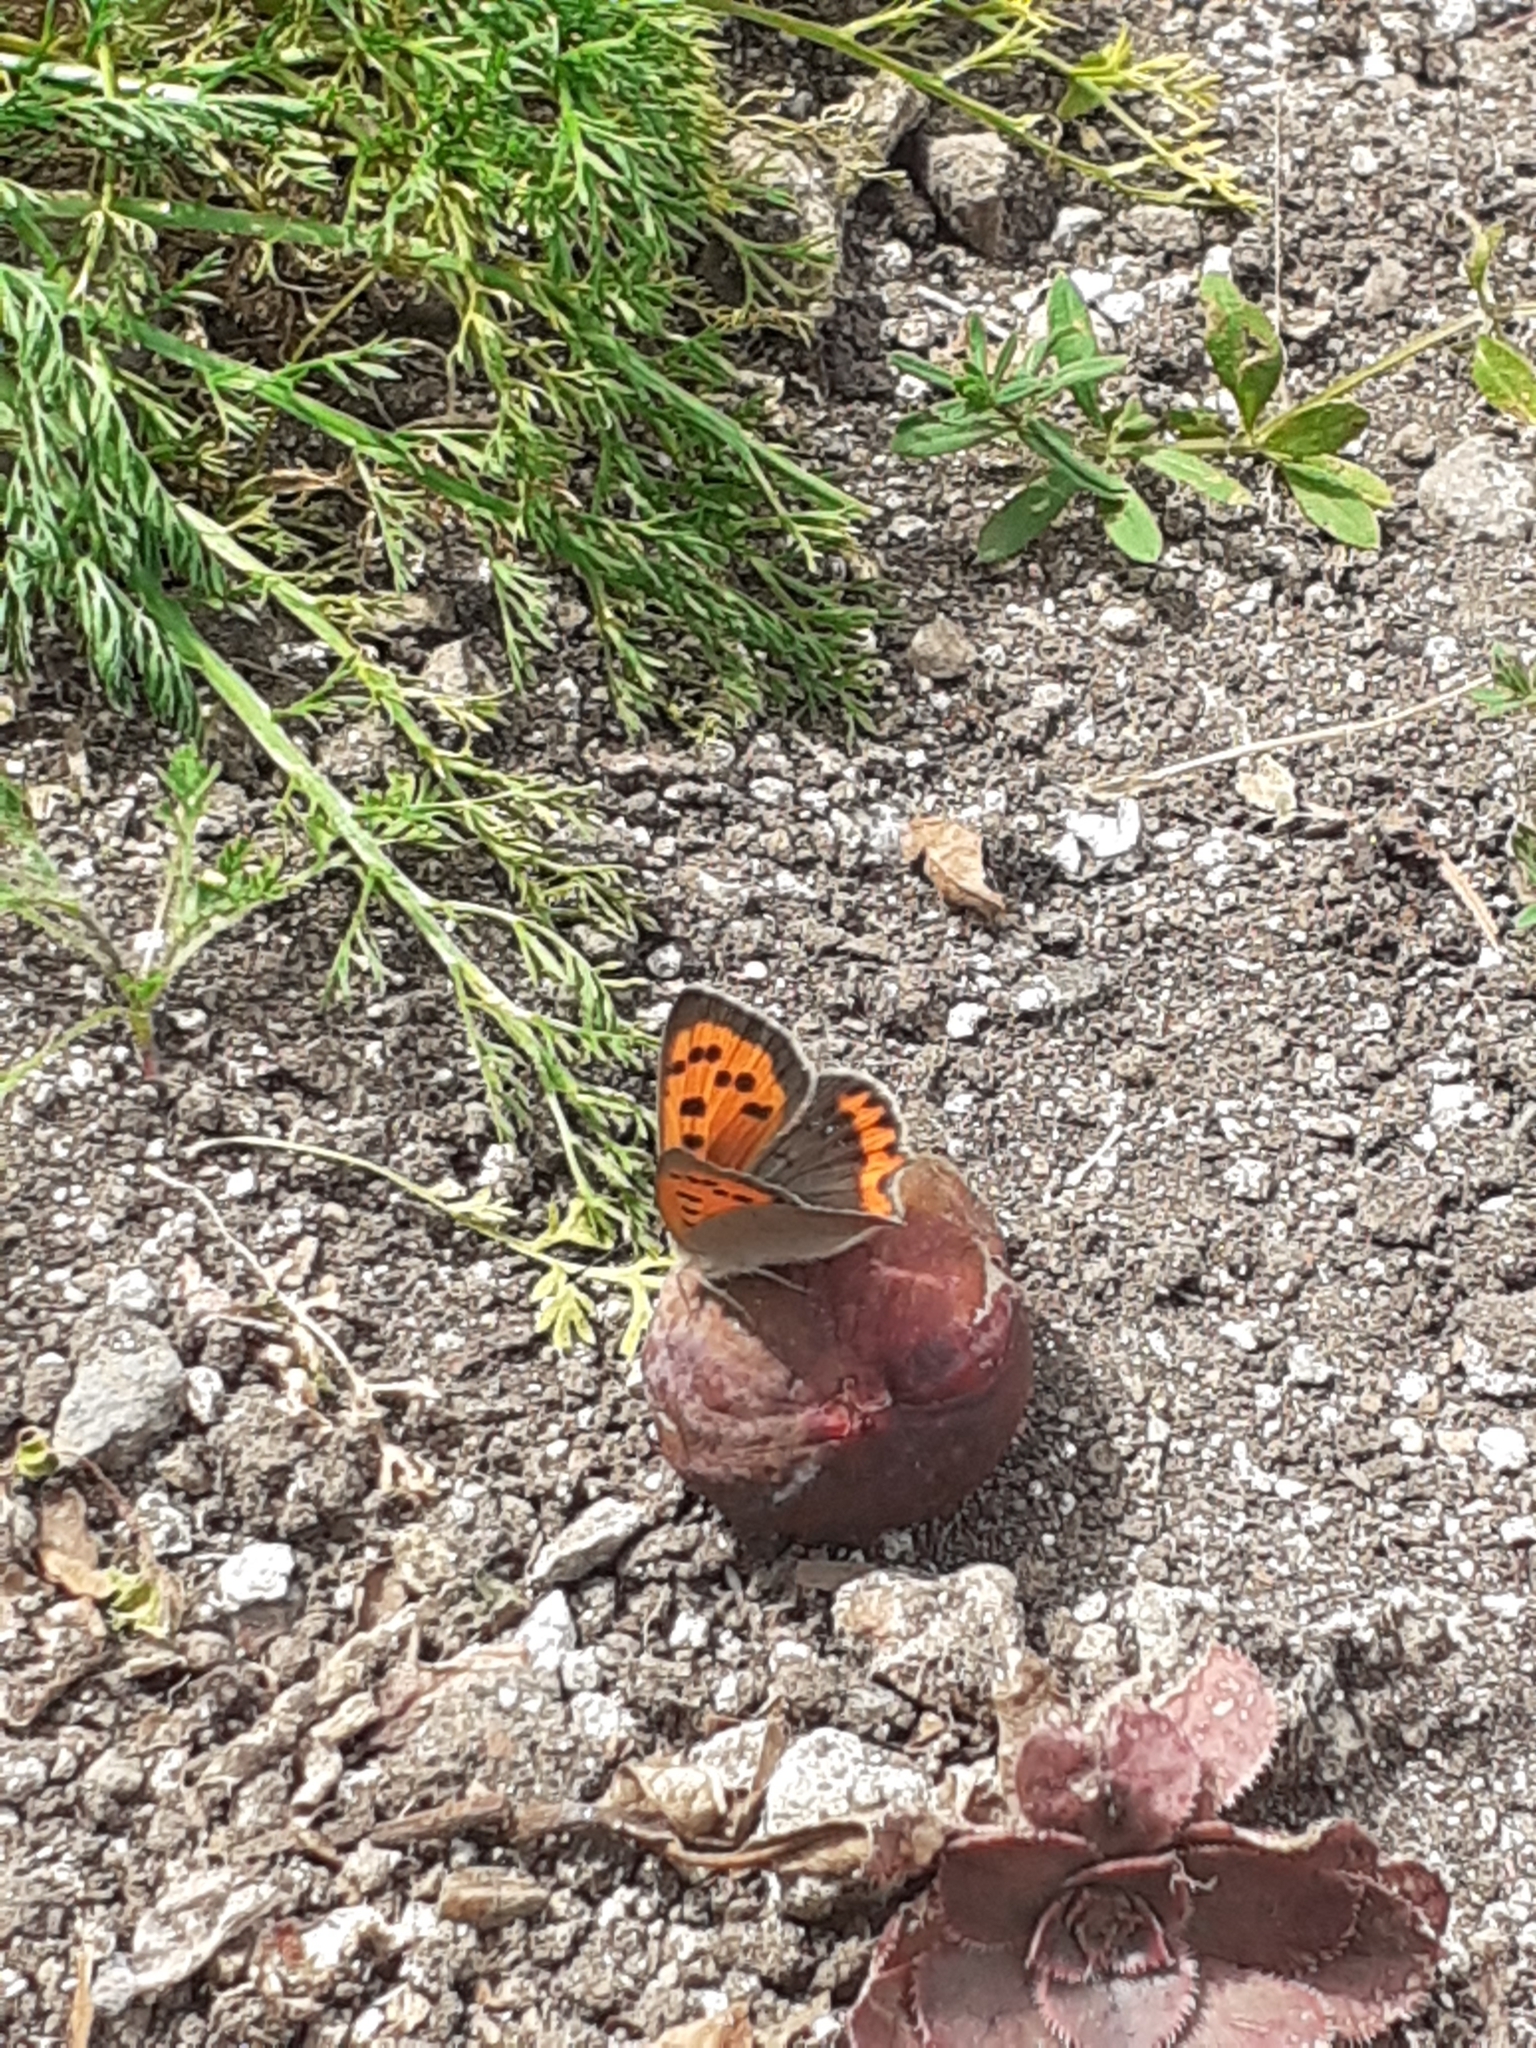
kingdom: Animalia
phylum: Arthropoda
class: Insecta
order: Lepidoptera
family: Lycaenidae
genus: Lycaena
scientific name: Lycaena phlaeas
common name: Small copper
